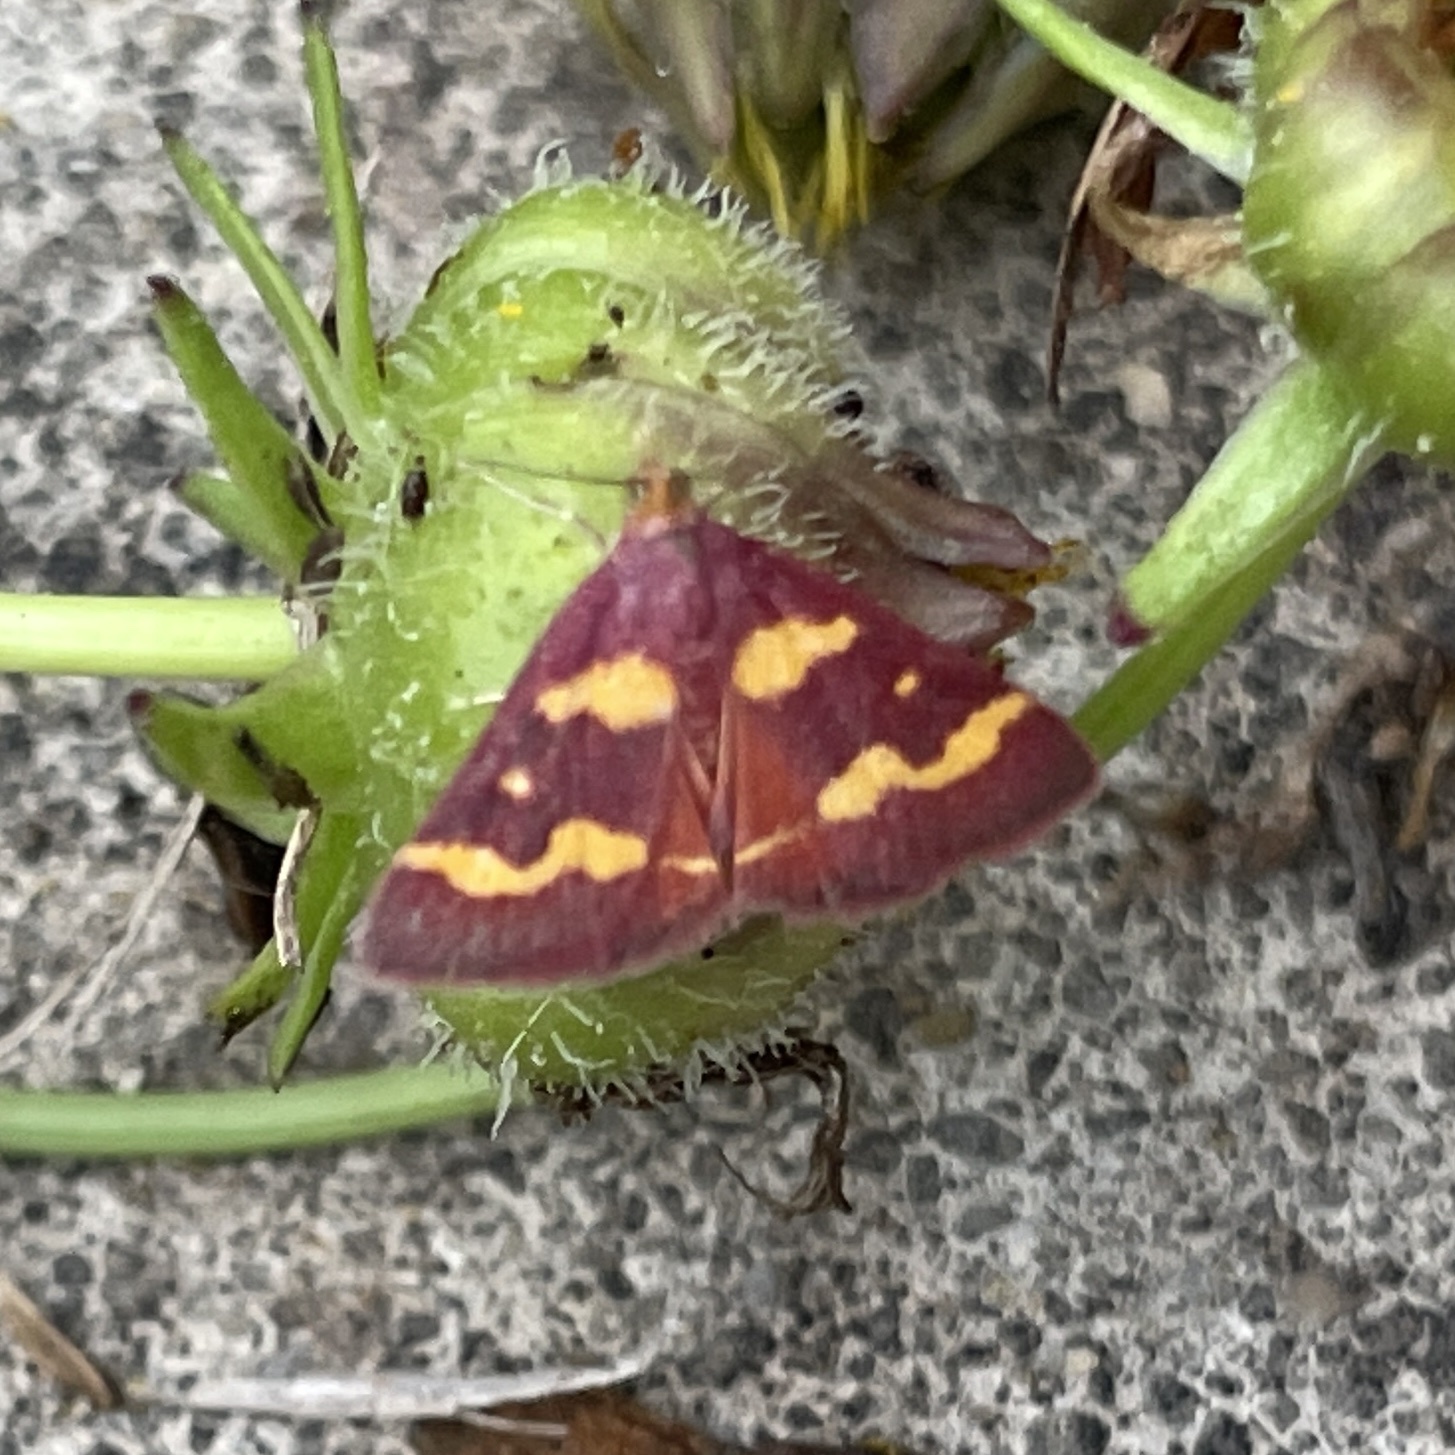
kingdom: Animalia
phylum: Arthropoda
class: Insecta
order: Lepidoptera
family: Crambidae
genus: Pyrausta
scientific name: Pyrausta tyralis
